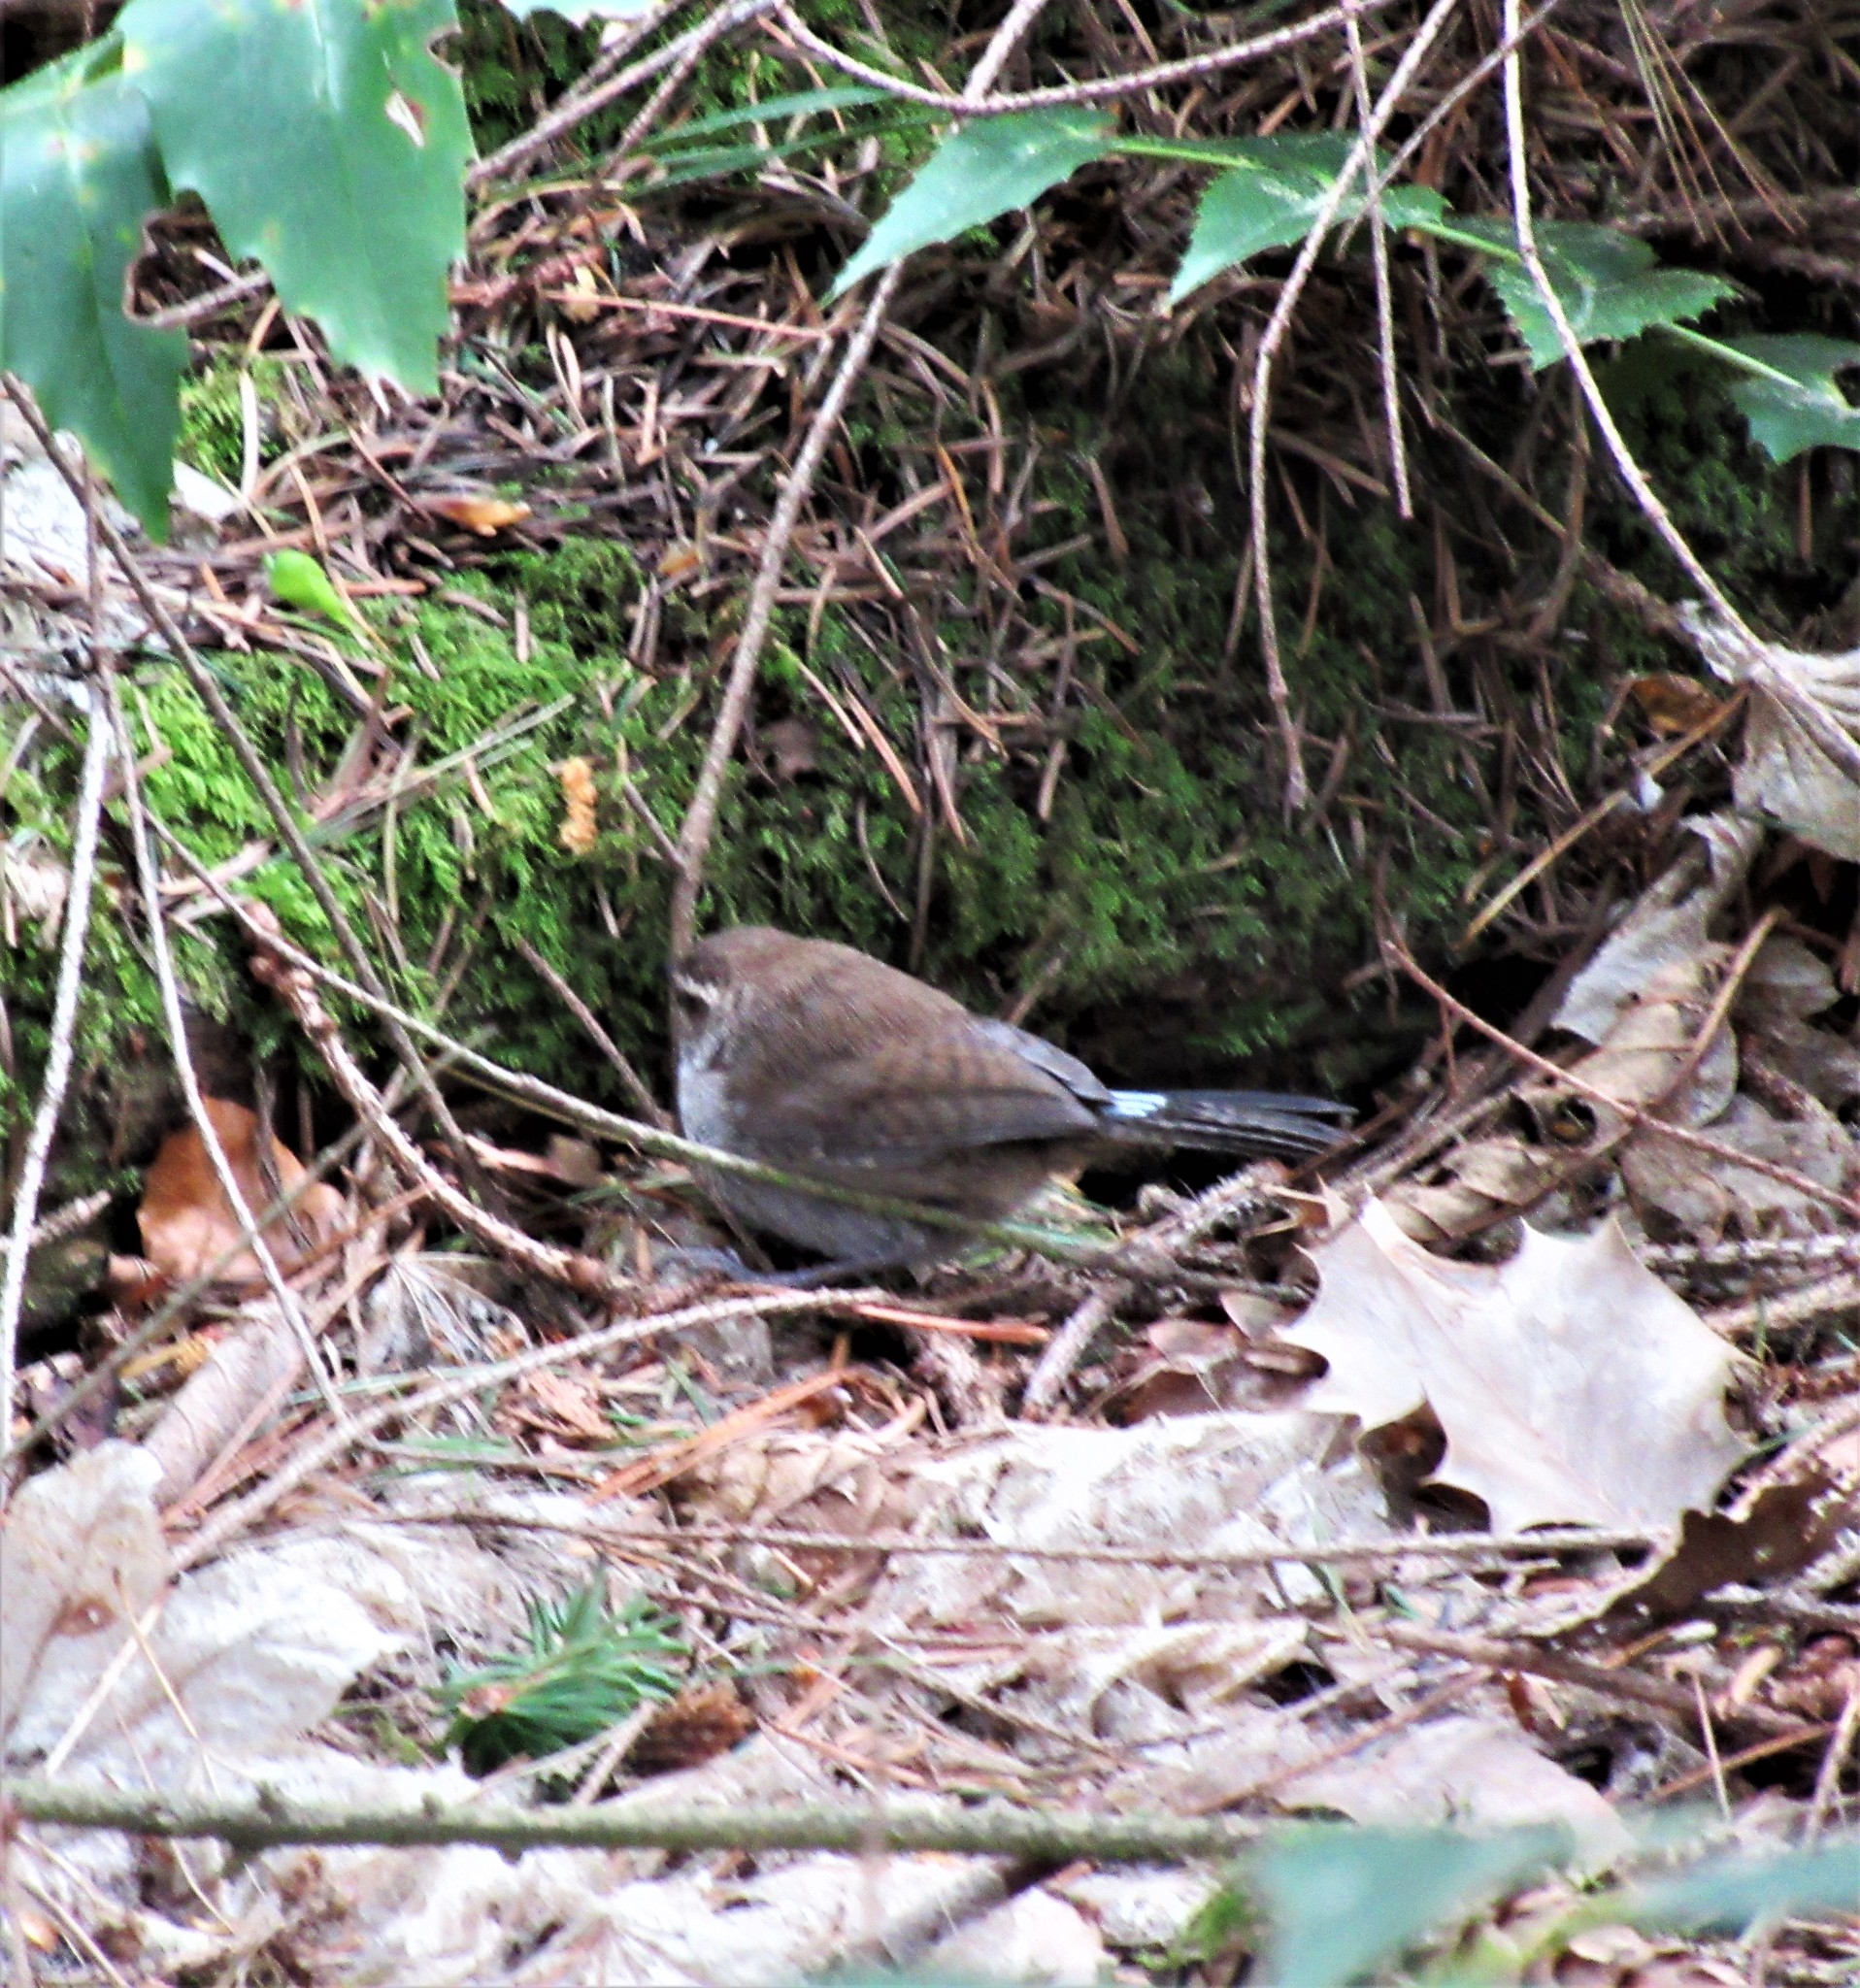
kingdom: Animalia
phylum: Chordata
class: Aves
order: Passeriformes
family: Troglodytidae
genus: Thryomanes
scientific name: Thryomanes bewickii
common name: Bewick's wren
